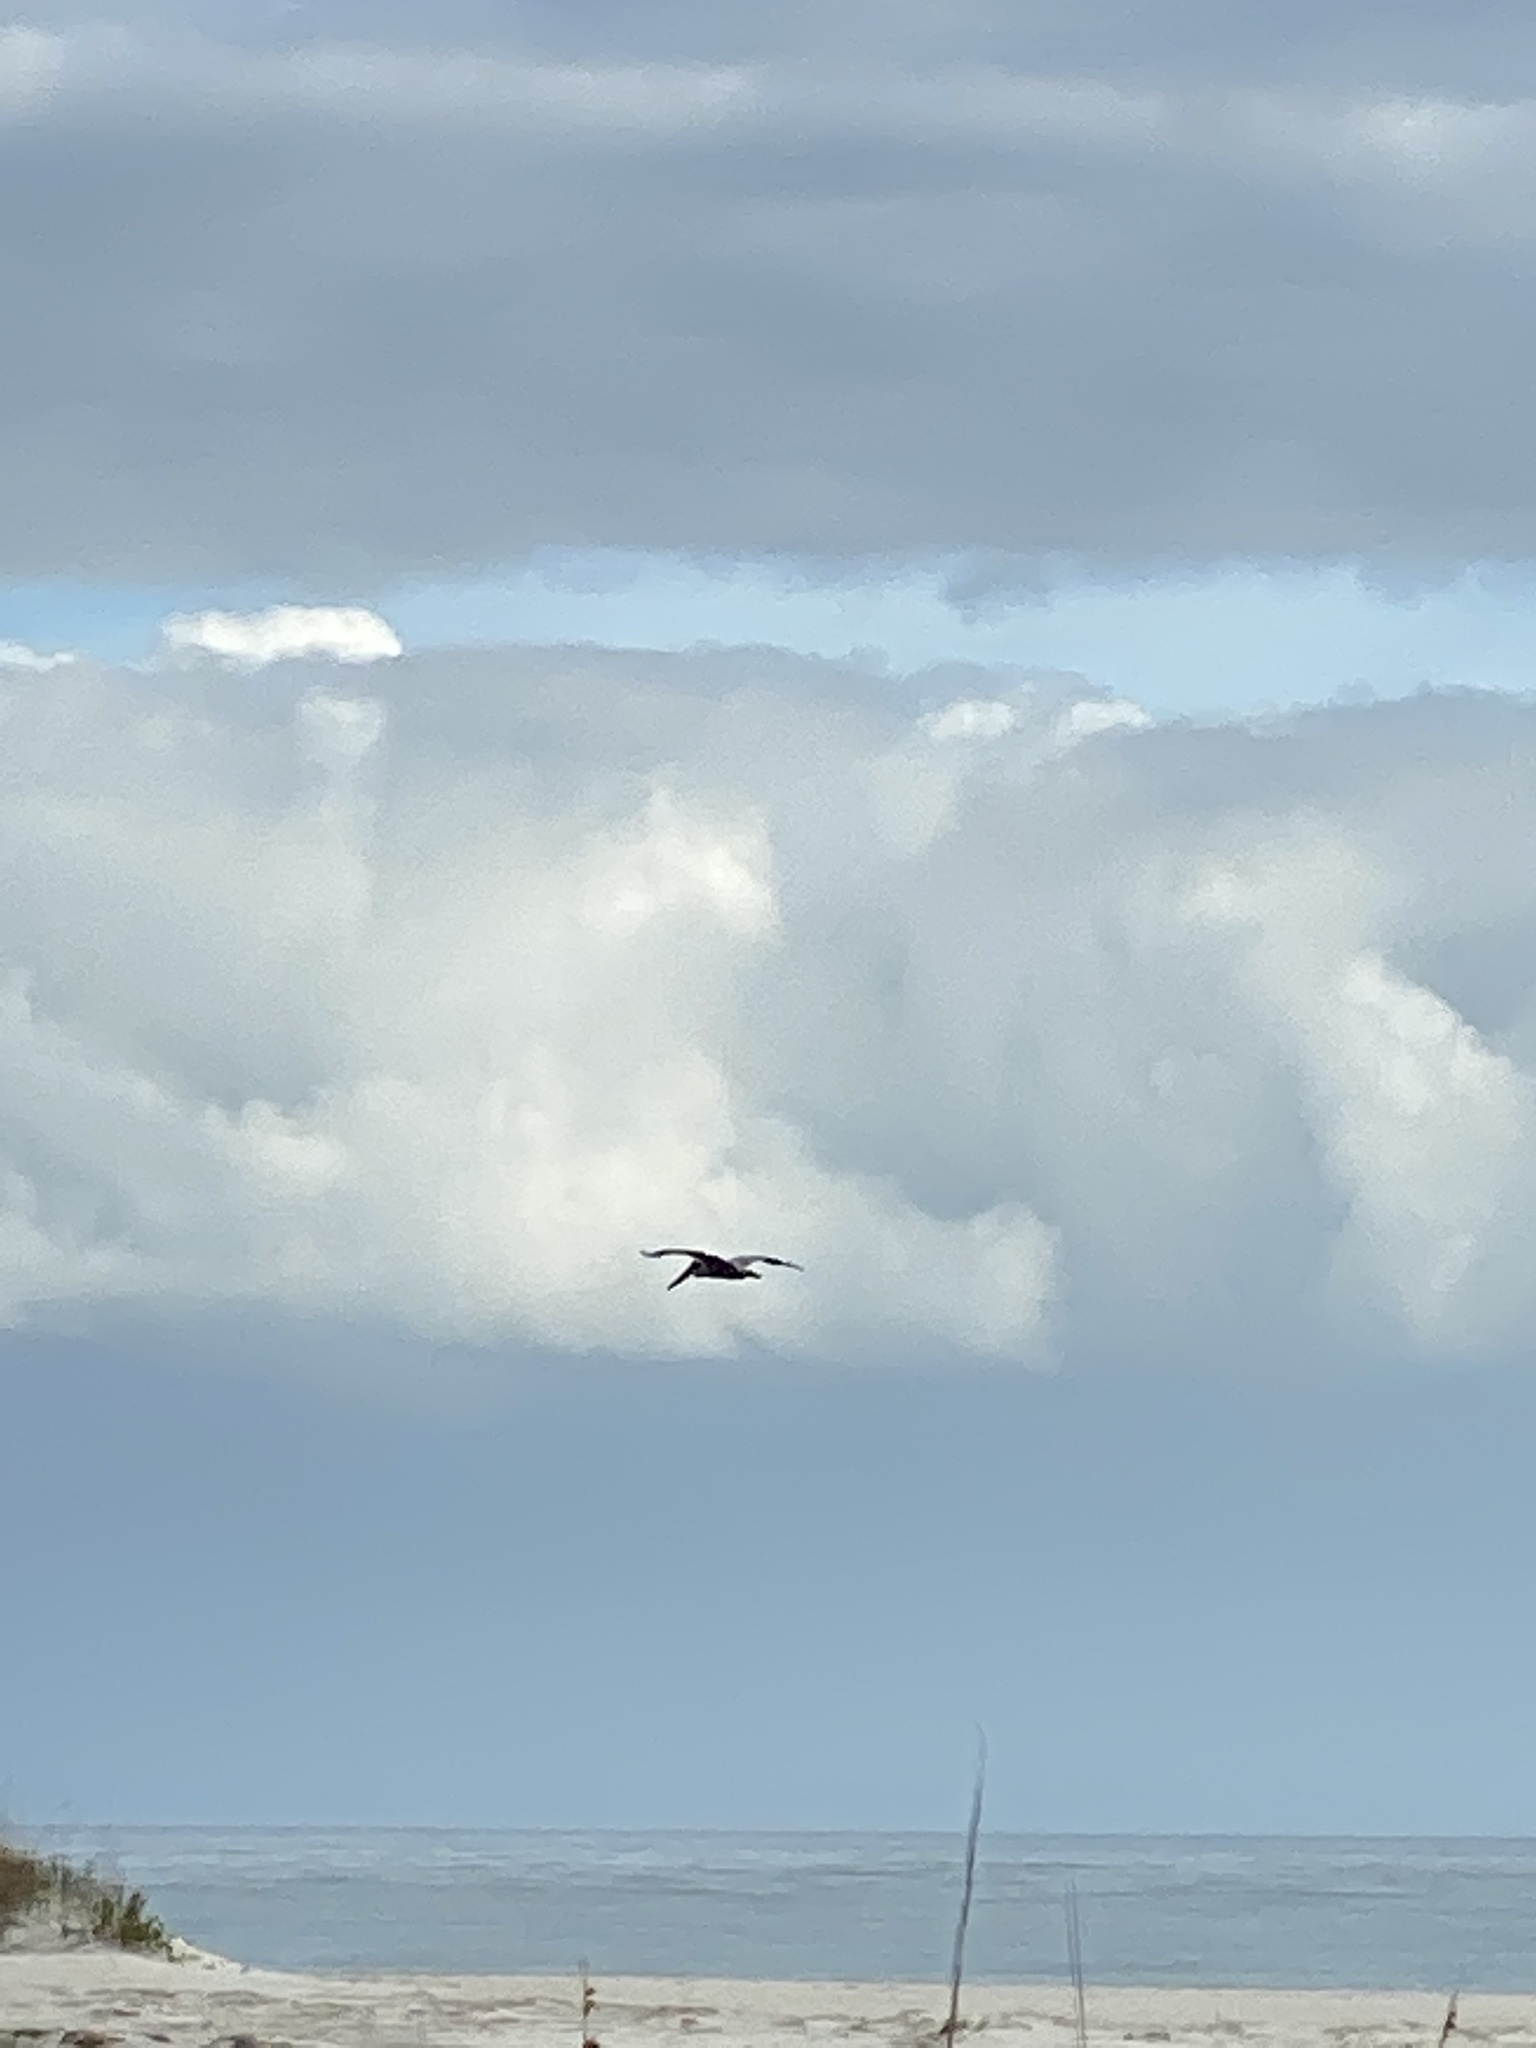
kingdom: Animalia
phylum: Chordata
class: Aves
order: Pelecaniformes
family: Pelecanidae
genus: Pelecanus
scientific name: Pelecanus occidentalis
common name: Brown pelican
